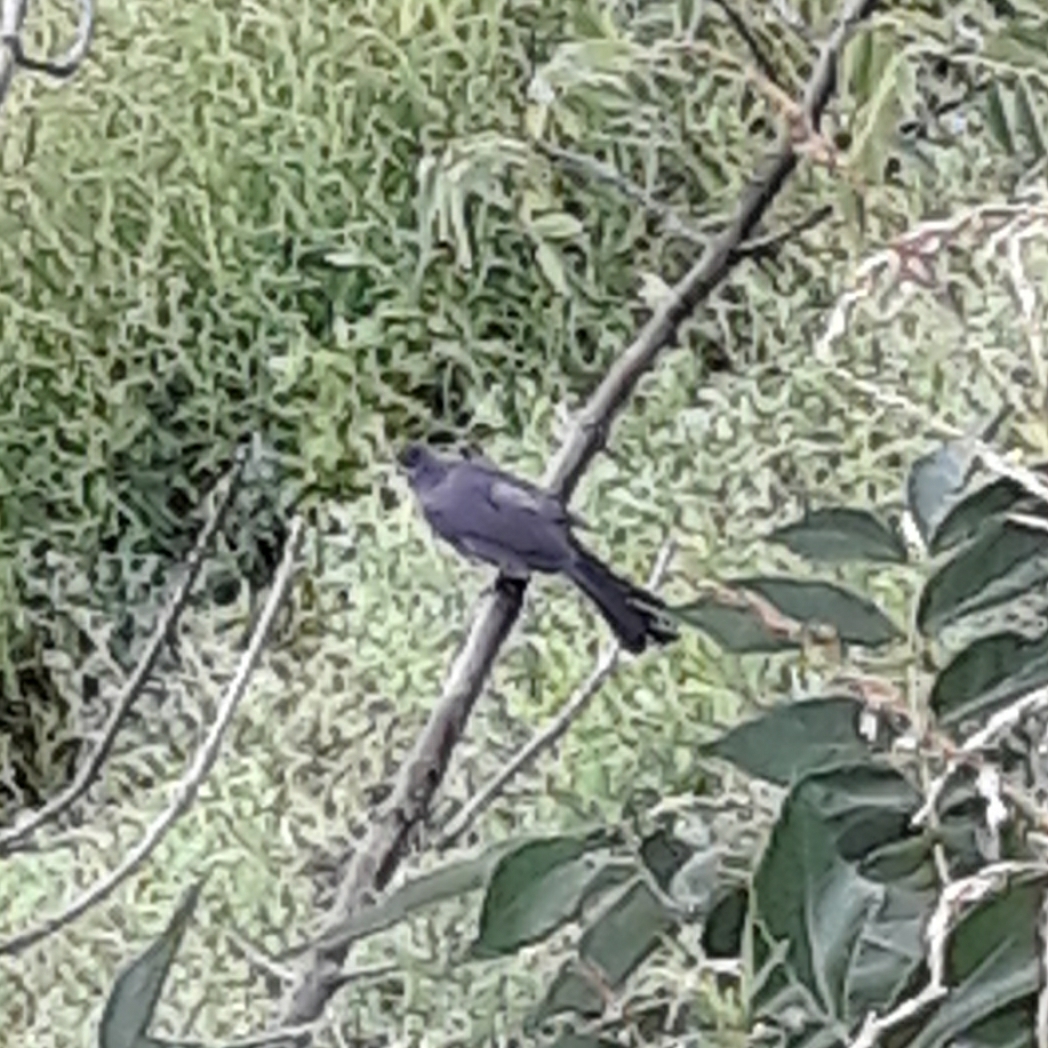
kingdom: Animalia
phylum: Chordata
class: Aves
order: Passeriformes
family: Mimidae
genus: Dumetella
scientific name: Dumetella carolinensis
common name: Gray catbird
